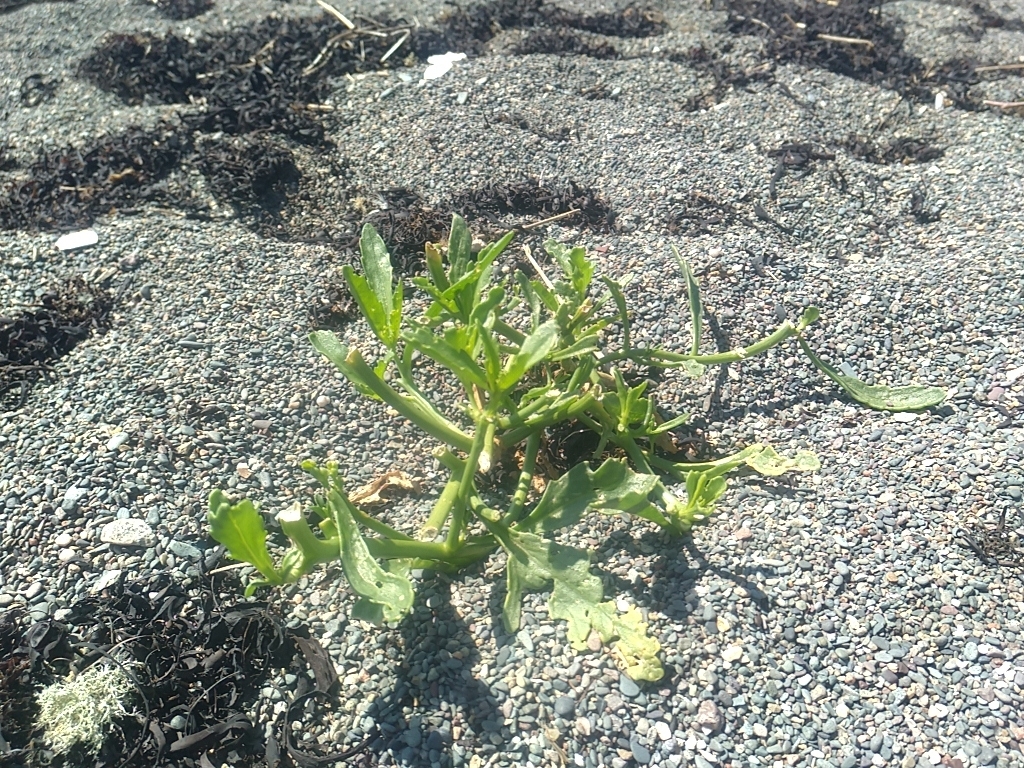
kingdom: Plantae
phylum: Tracheophyta
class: Magnoliopsida
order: Brassicales
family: Brassicaceae
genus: Cakile
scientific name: Cakile edentula
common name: American sea rocket
